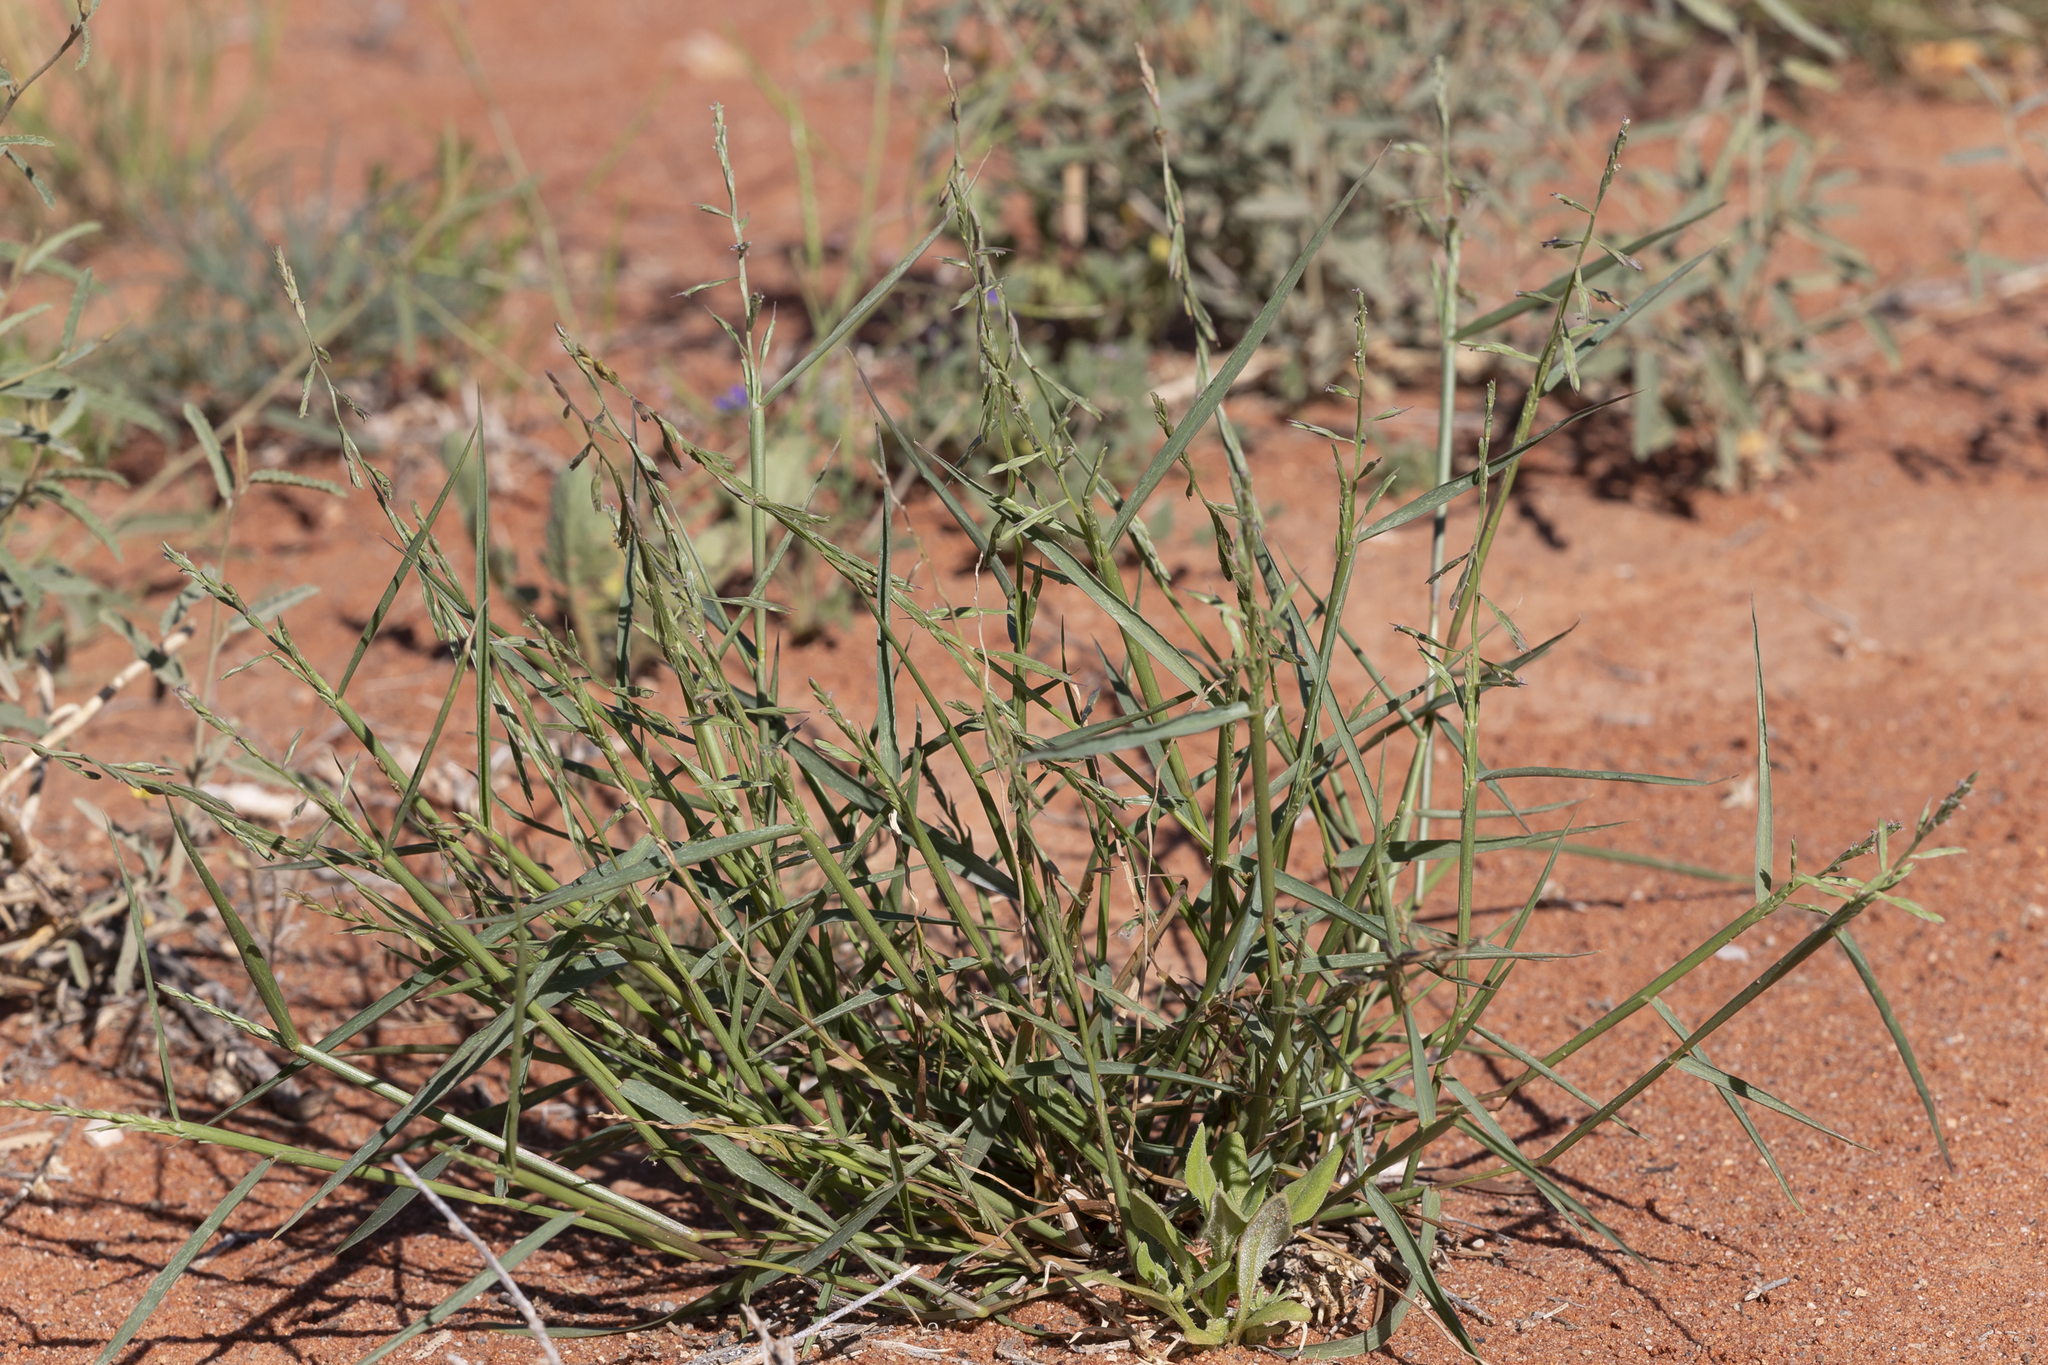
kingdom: Plantae
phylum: Tracheophyta
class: Liliopsida
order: Poales
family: Poaceae
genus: Paractaenum
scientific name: Paractaenum novae-hollandiae
